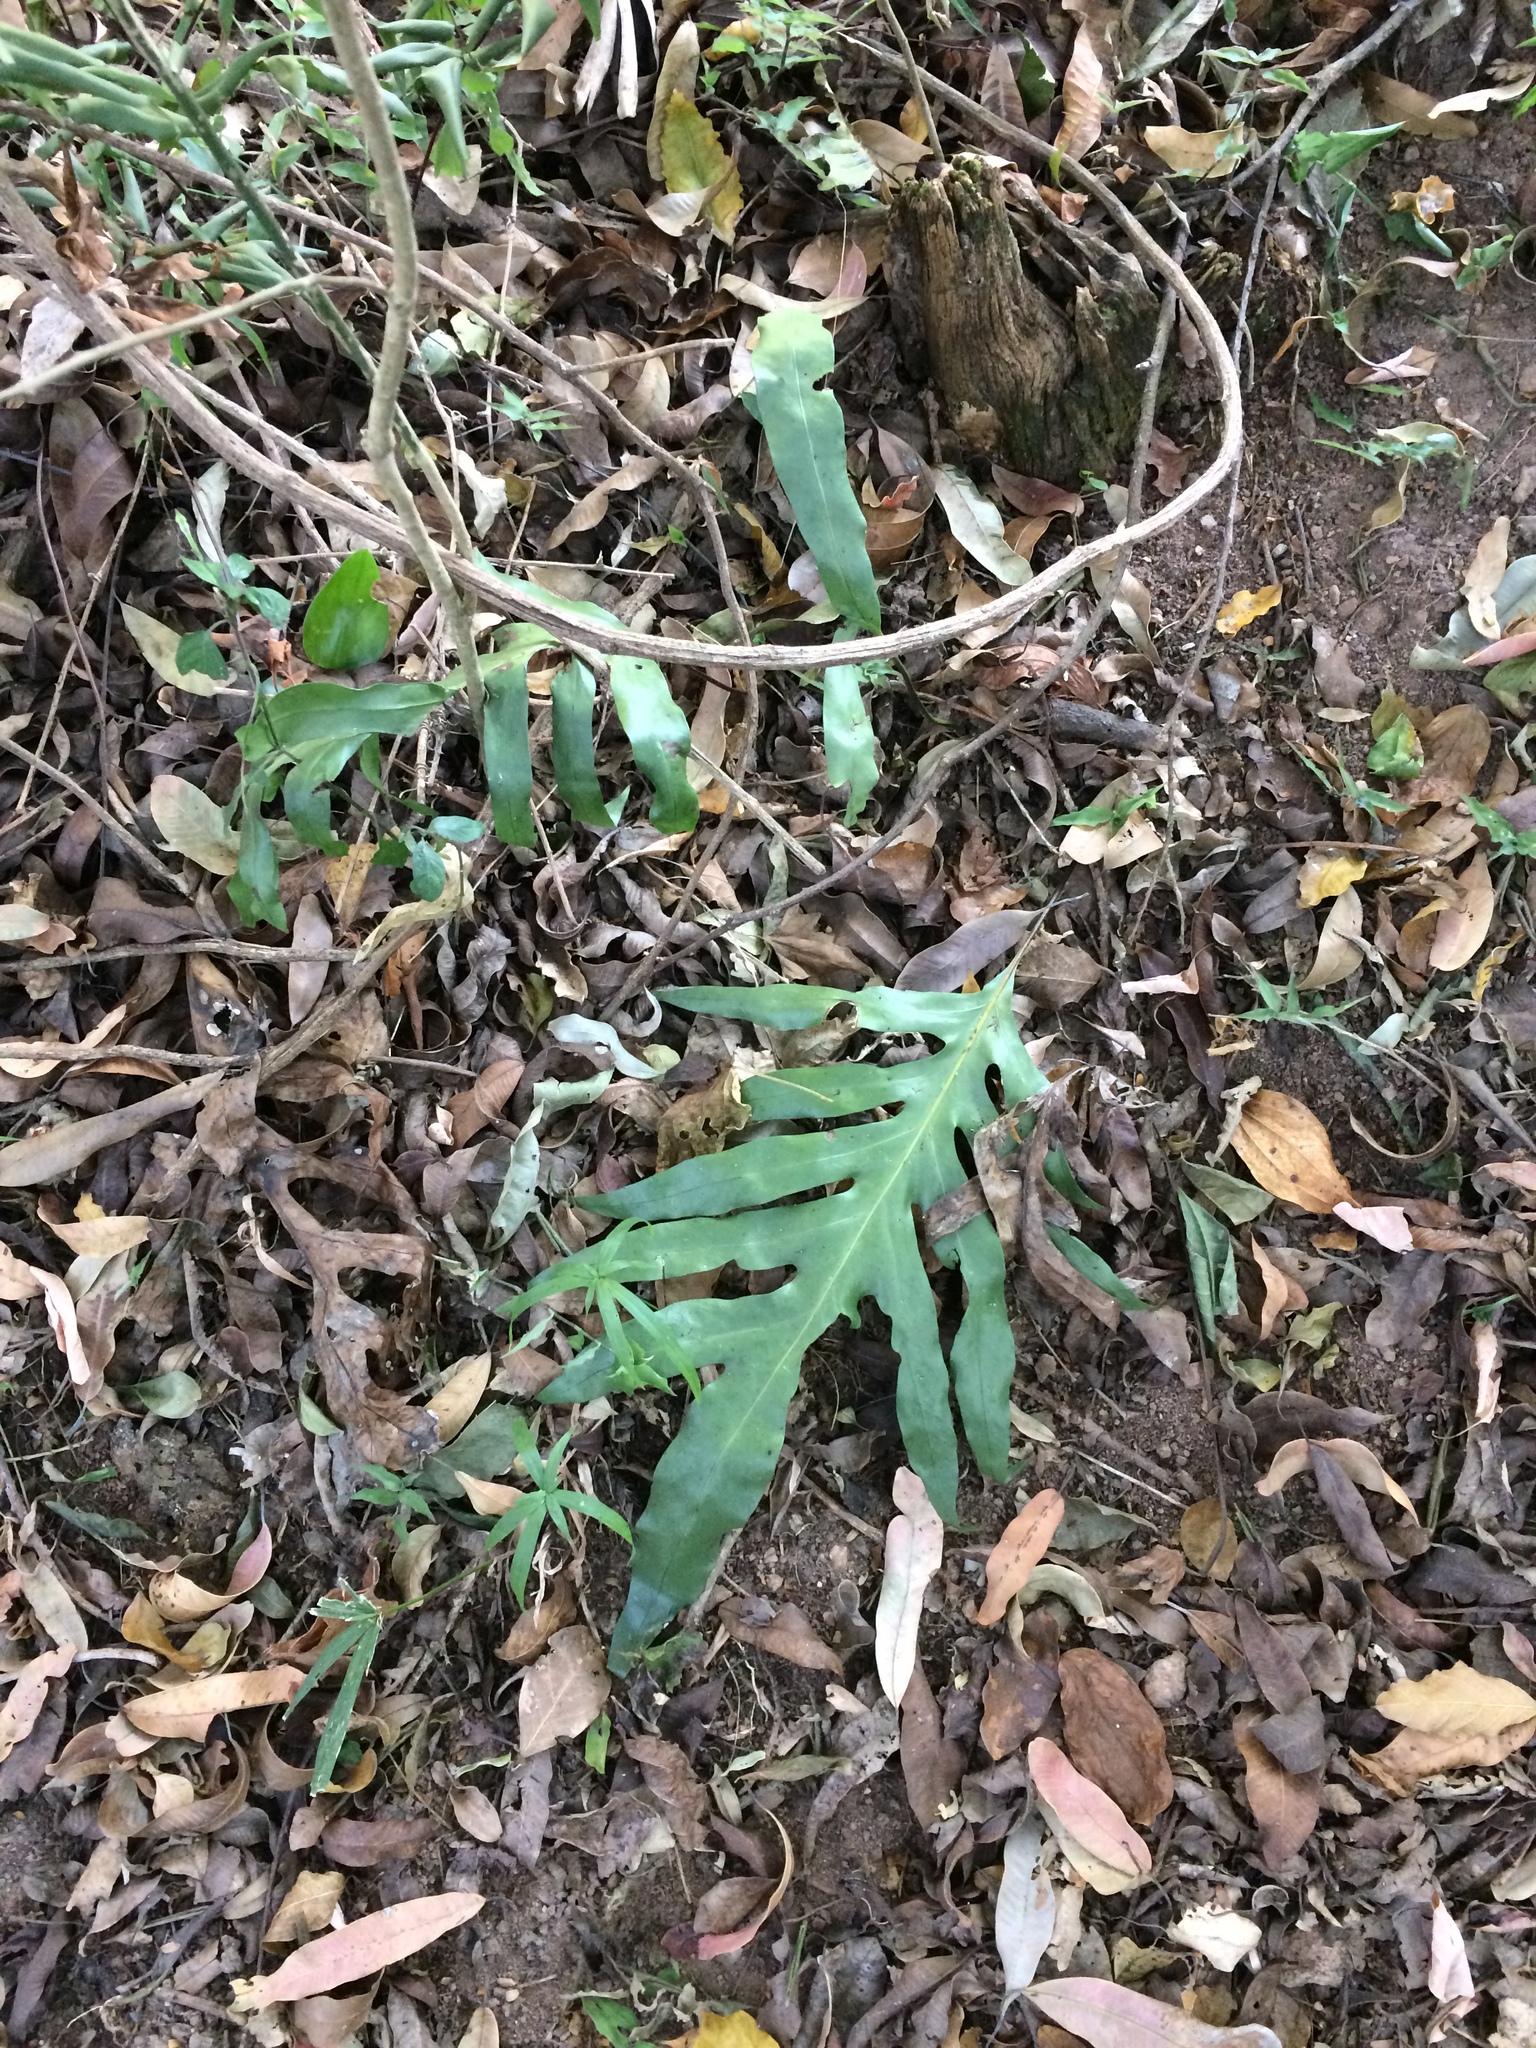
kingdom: Plantae
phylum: Tracheophyta
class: Polypodiopsida
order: Polypodiales
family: Polypodiaceae
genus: Microsorum
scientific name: Microsorum scolopendria
